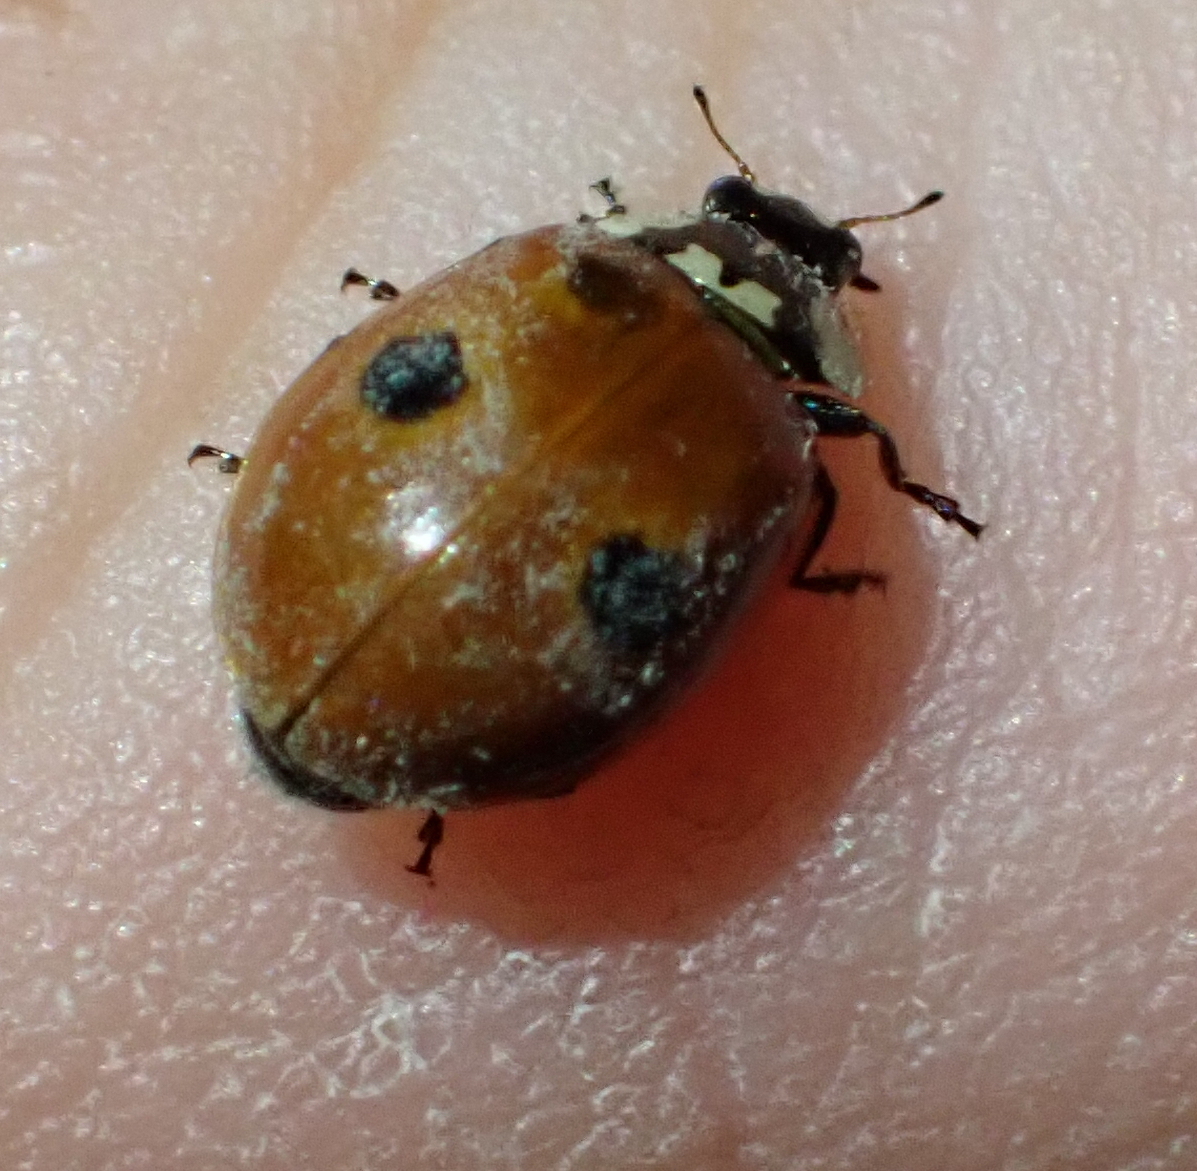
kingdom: Animalia
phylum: Arthropoda
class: Insecta
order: Coleoptera
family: Coccinellidae
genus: Adalia
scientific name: Adalia bipunctata
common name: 2-spot ladybird
